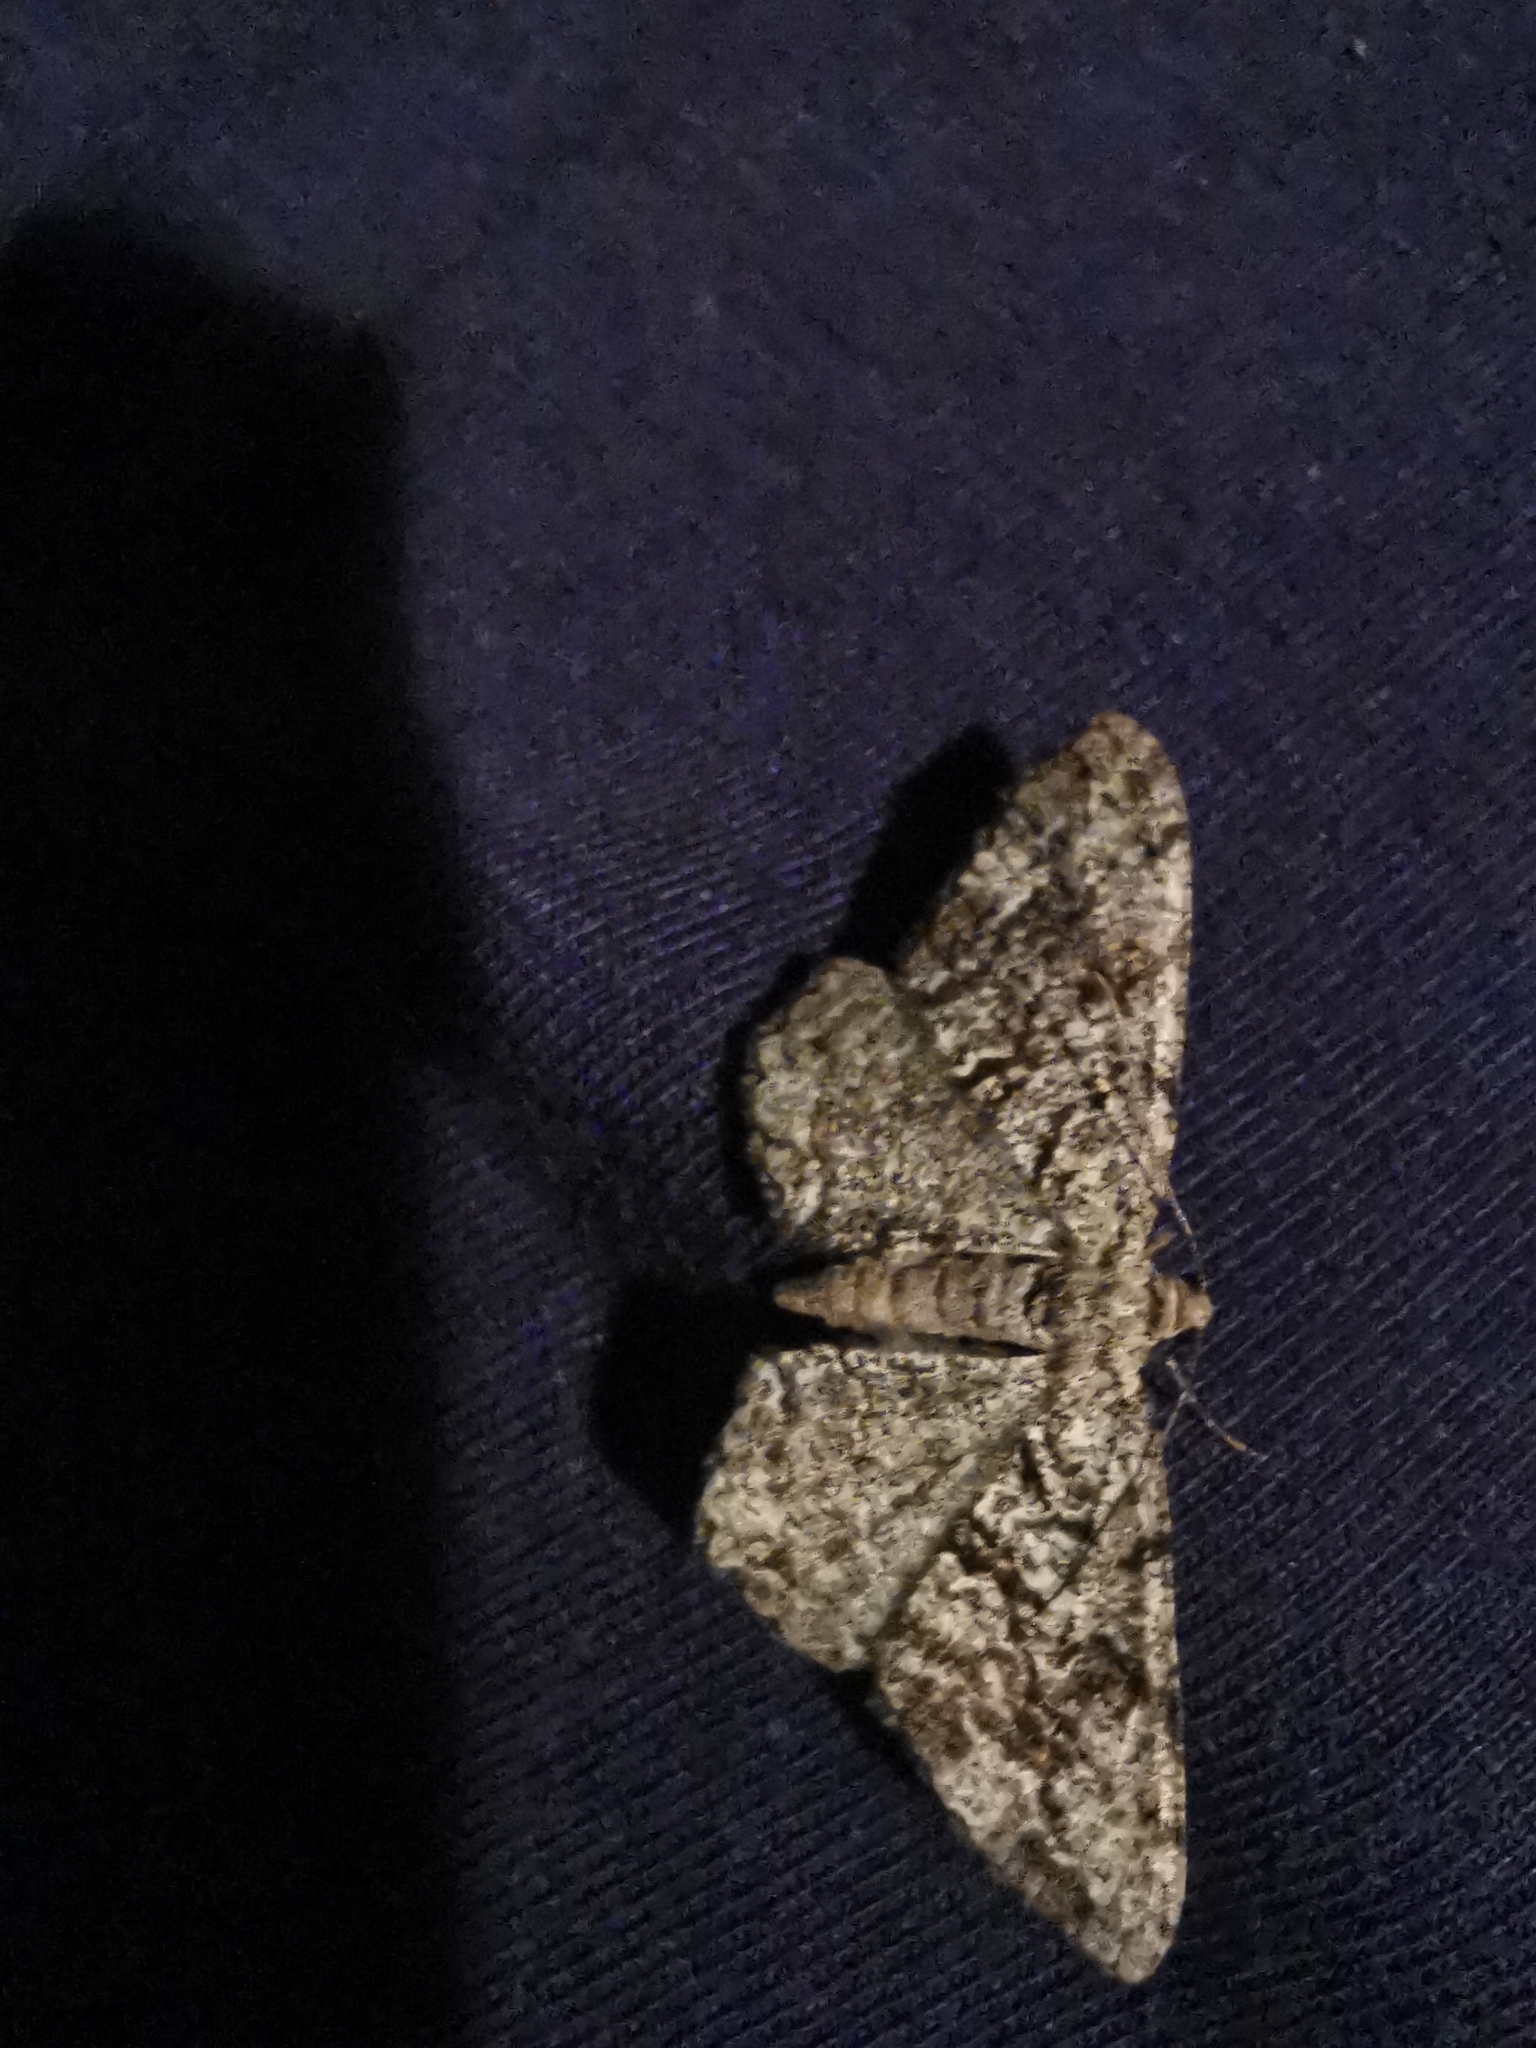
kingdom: Animalia
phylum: Arthropoda
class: Insecta
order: Lepidoptera
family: Geometridae
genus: Peribatodes
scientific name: Peribatodes secundaria
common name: Feathered beauty
